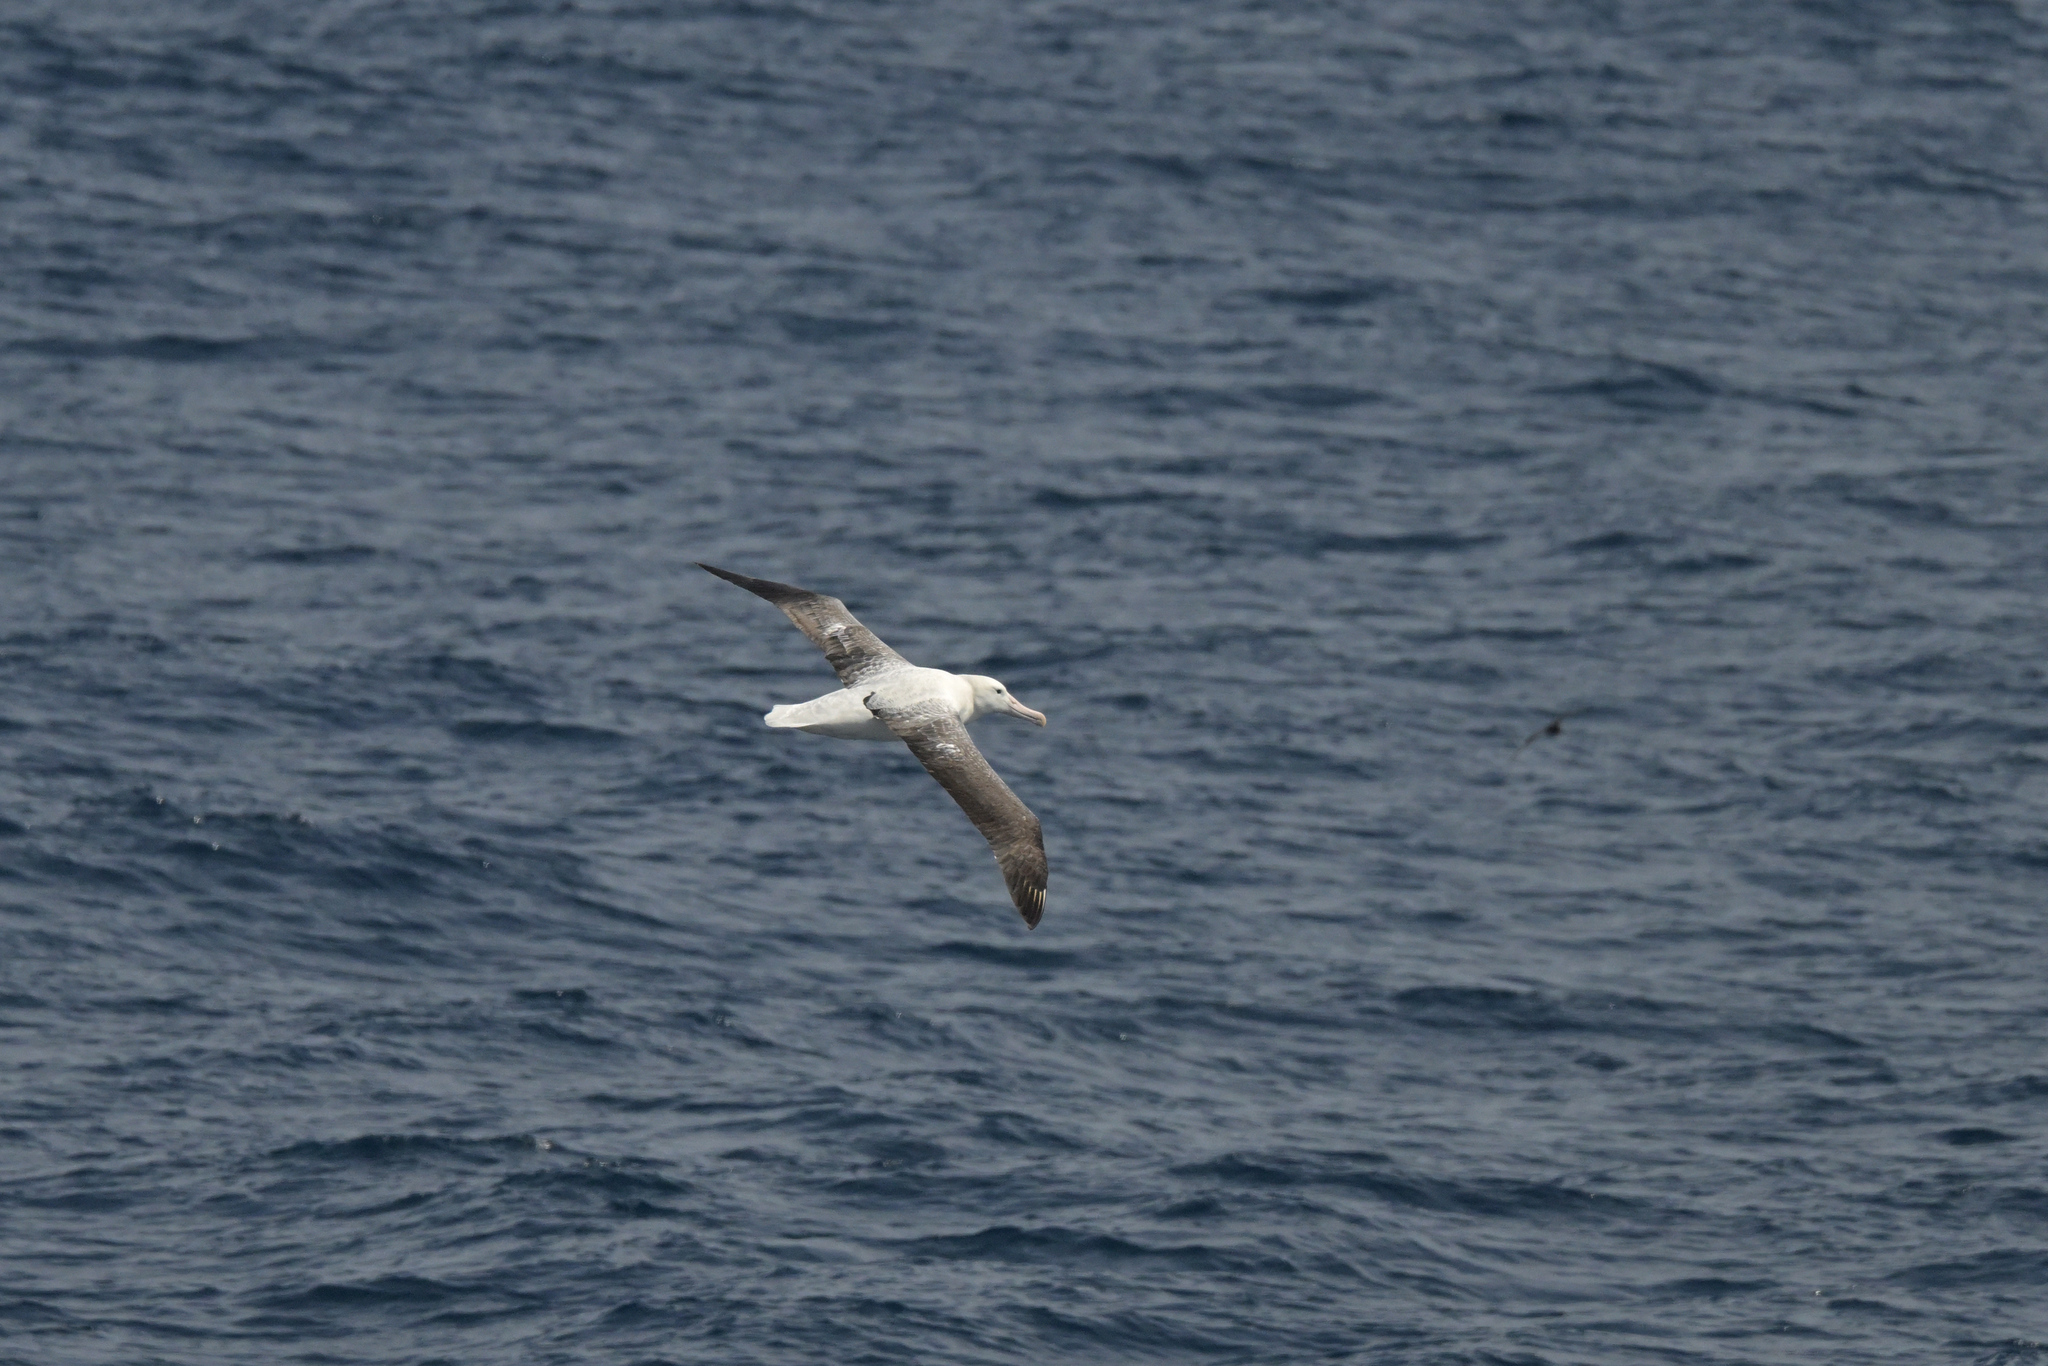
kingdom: Animalia
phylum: Chordata
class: Aves
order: Procellariiformes
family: Diomedeidae
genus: Diomedea
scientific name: Diomedea epomophora
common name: Southern royal albatross
